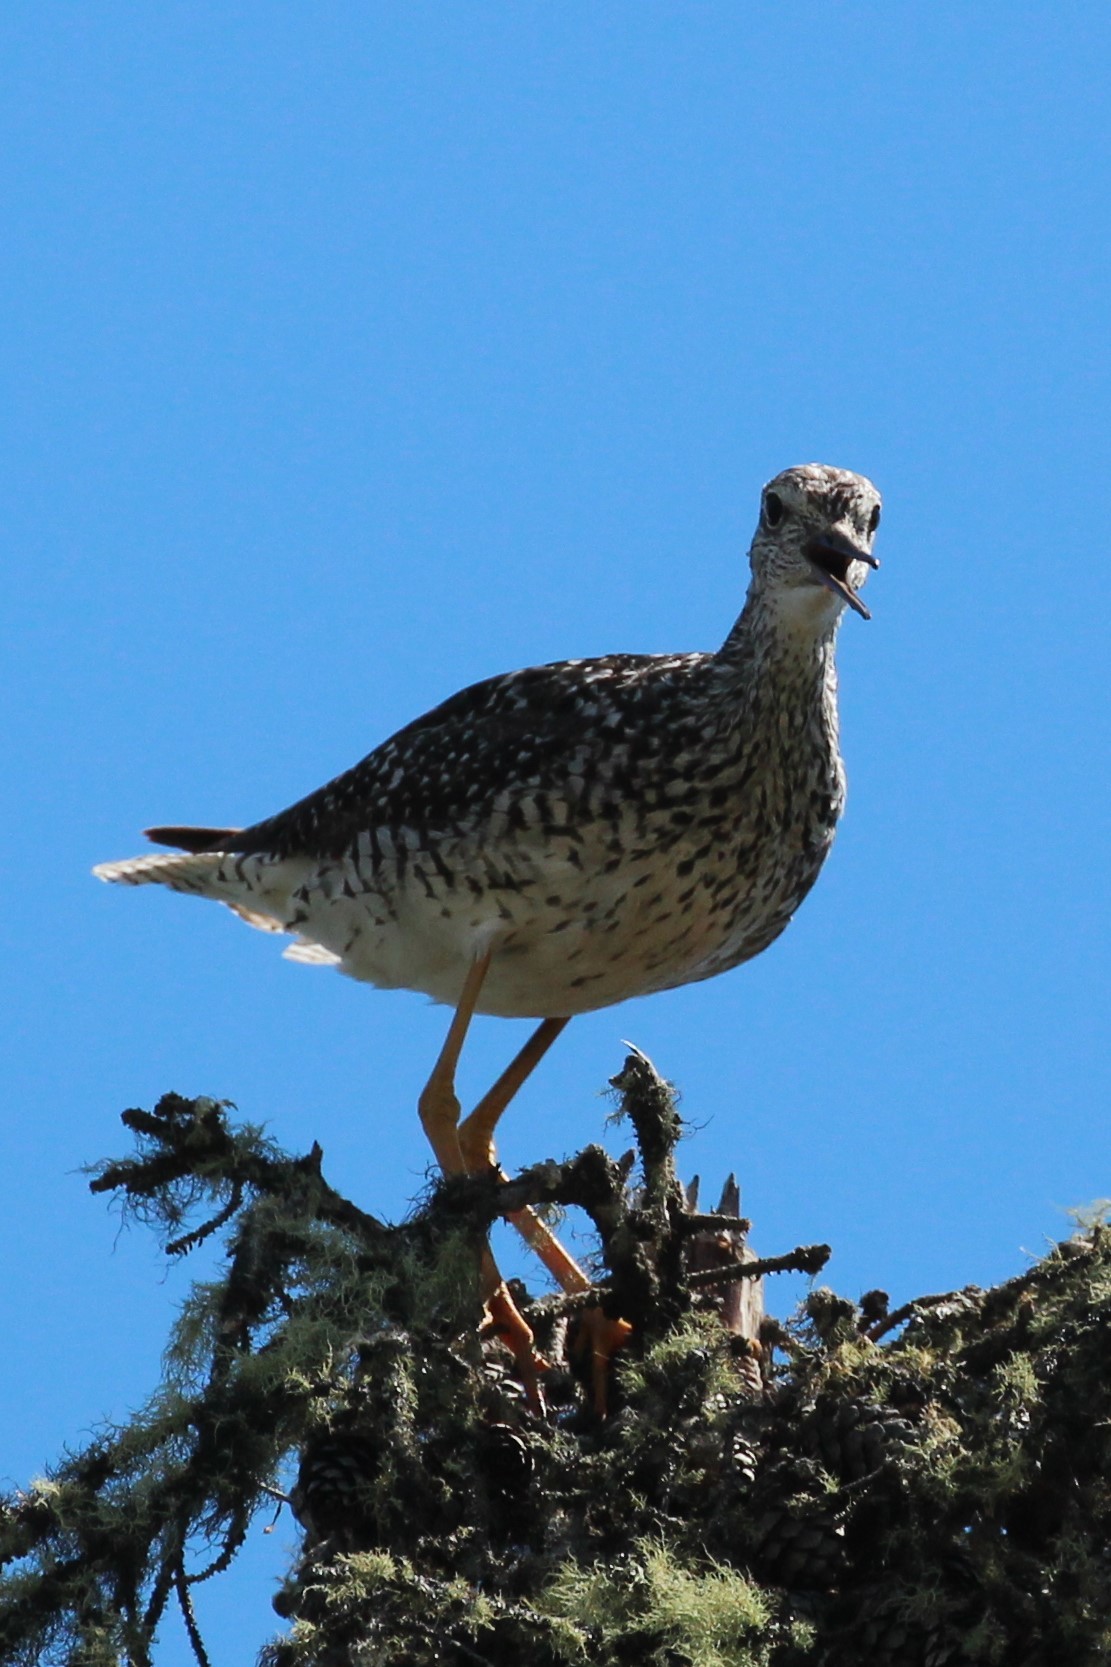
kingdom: Animalia
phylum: Chordata
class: Aves
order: Charadriiformes
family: Scolopacidae
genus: Tringa
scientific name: Tringa melanoleuca
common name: Greater yellowlegs
